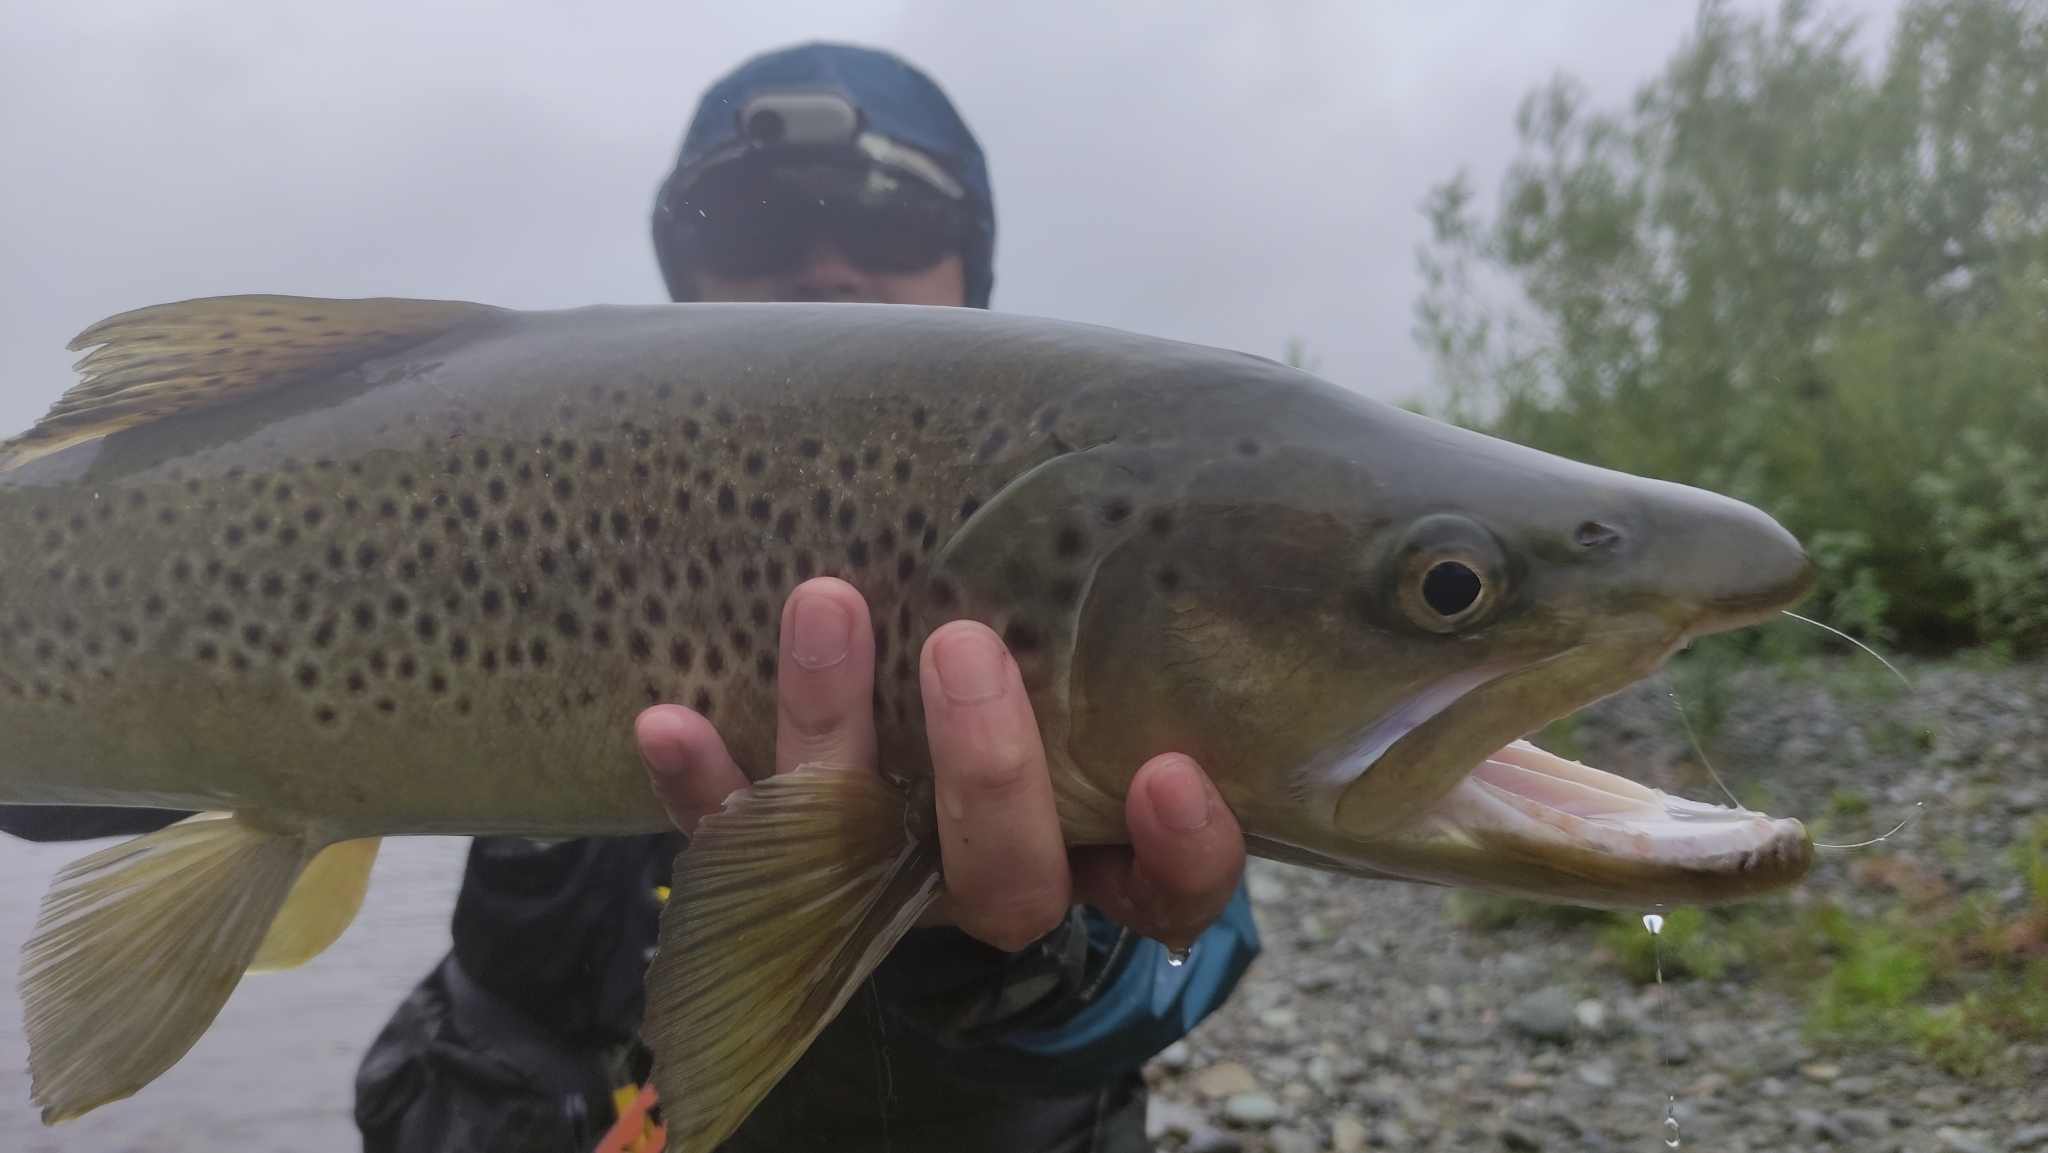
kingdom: Animalia
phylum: Chordata
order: Salmoniformes
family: Salmonidae
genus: Salmo
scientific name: Salmo trutta
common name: Brown trout
